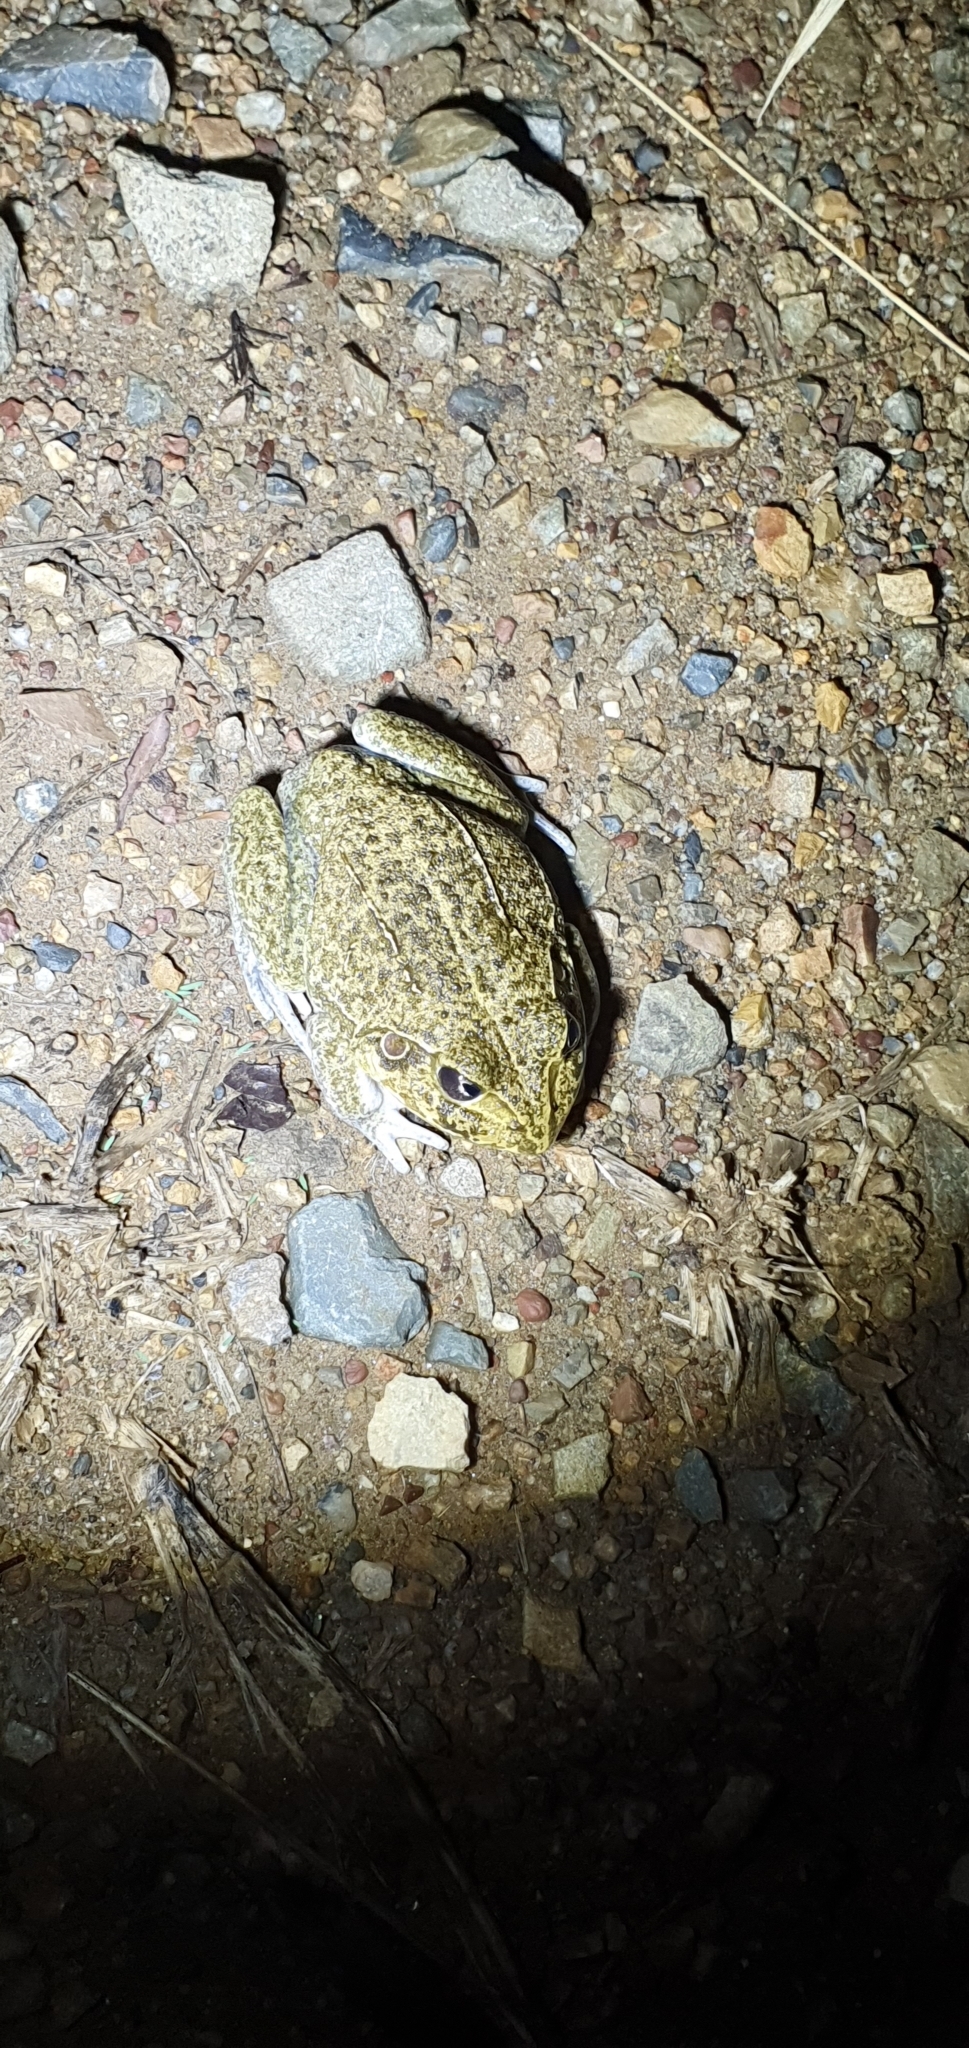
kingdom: Animalia
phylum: Chordata
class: Amphibia
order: Anura
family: Pelodryadidae
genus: Ranoidea
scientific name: Ranoidea novaehollandiae
